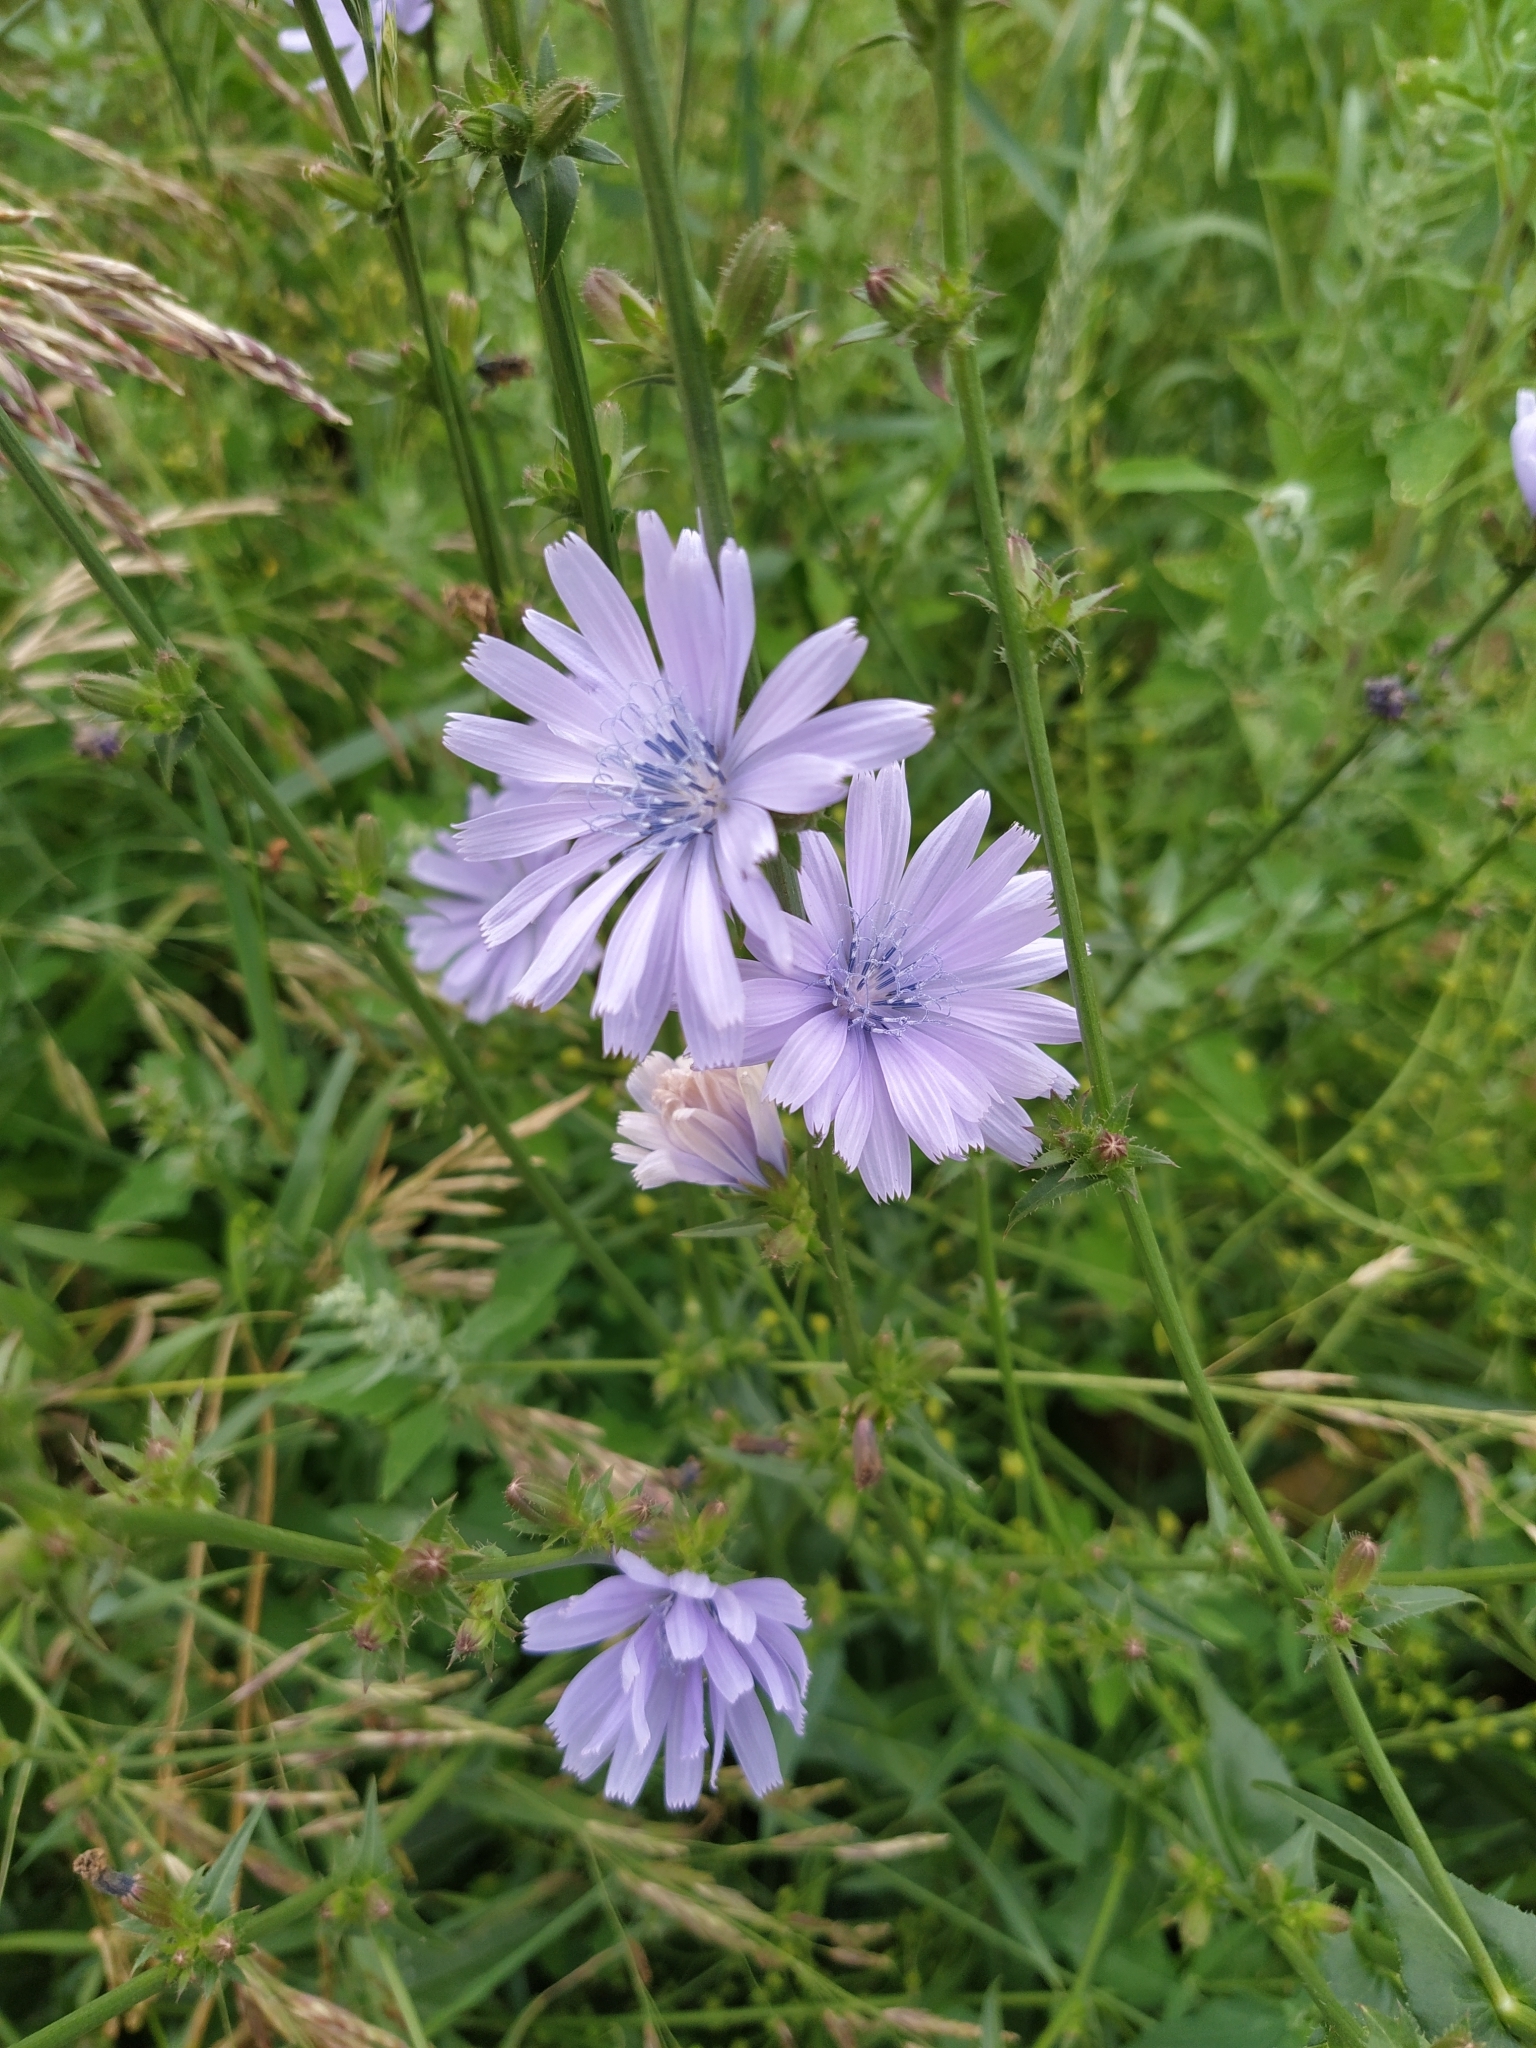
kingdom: Plantae
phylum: Tracheophyta
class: Magnoliopsida
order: Asterales
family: Asteraceae
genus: Cichorium
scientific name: Cichorium intybus
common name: Chicory
